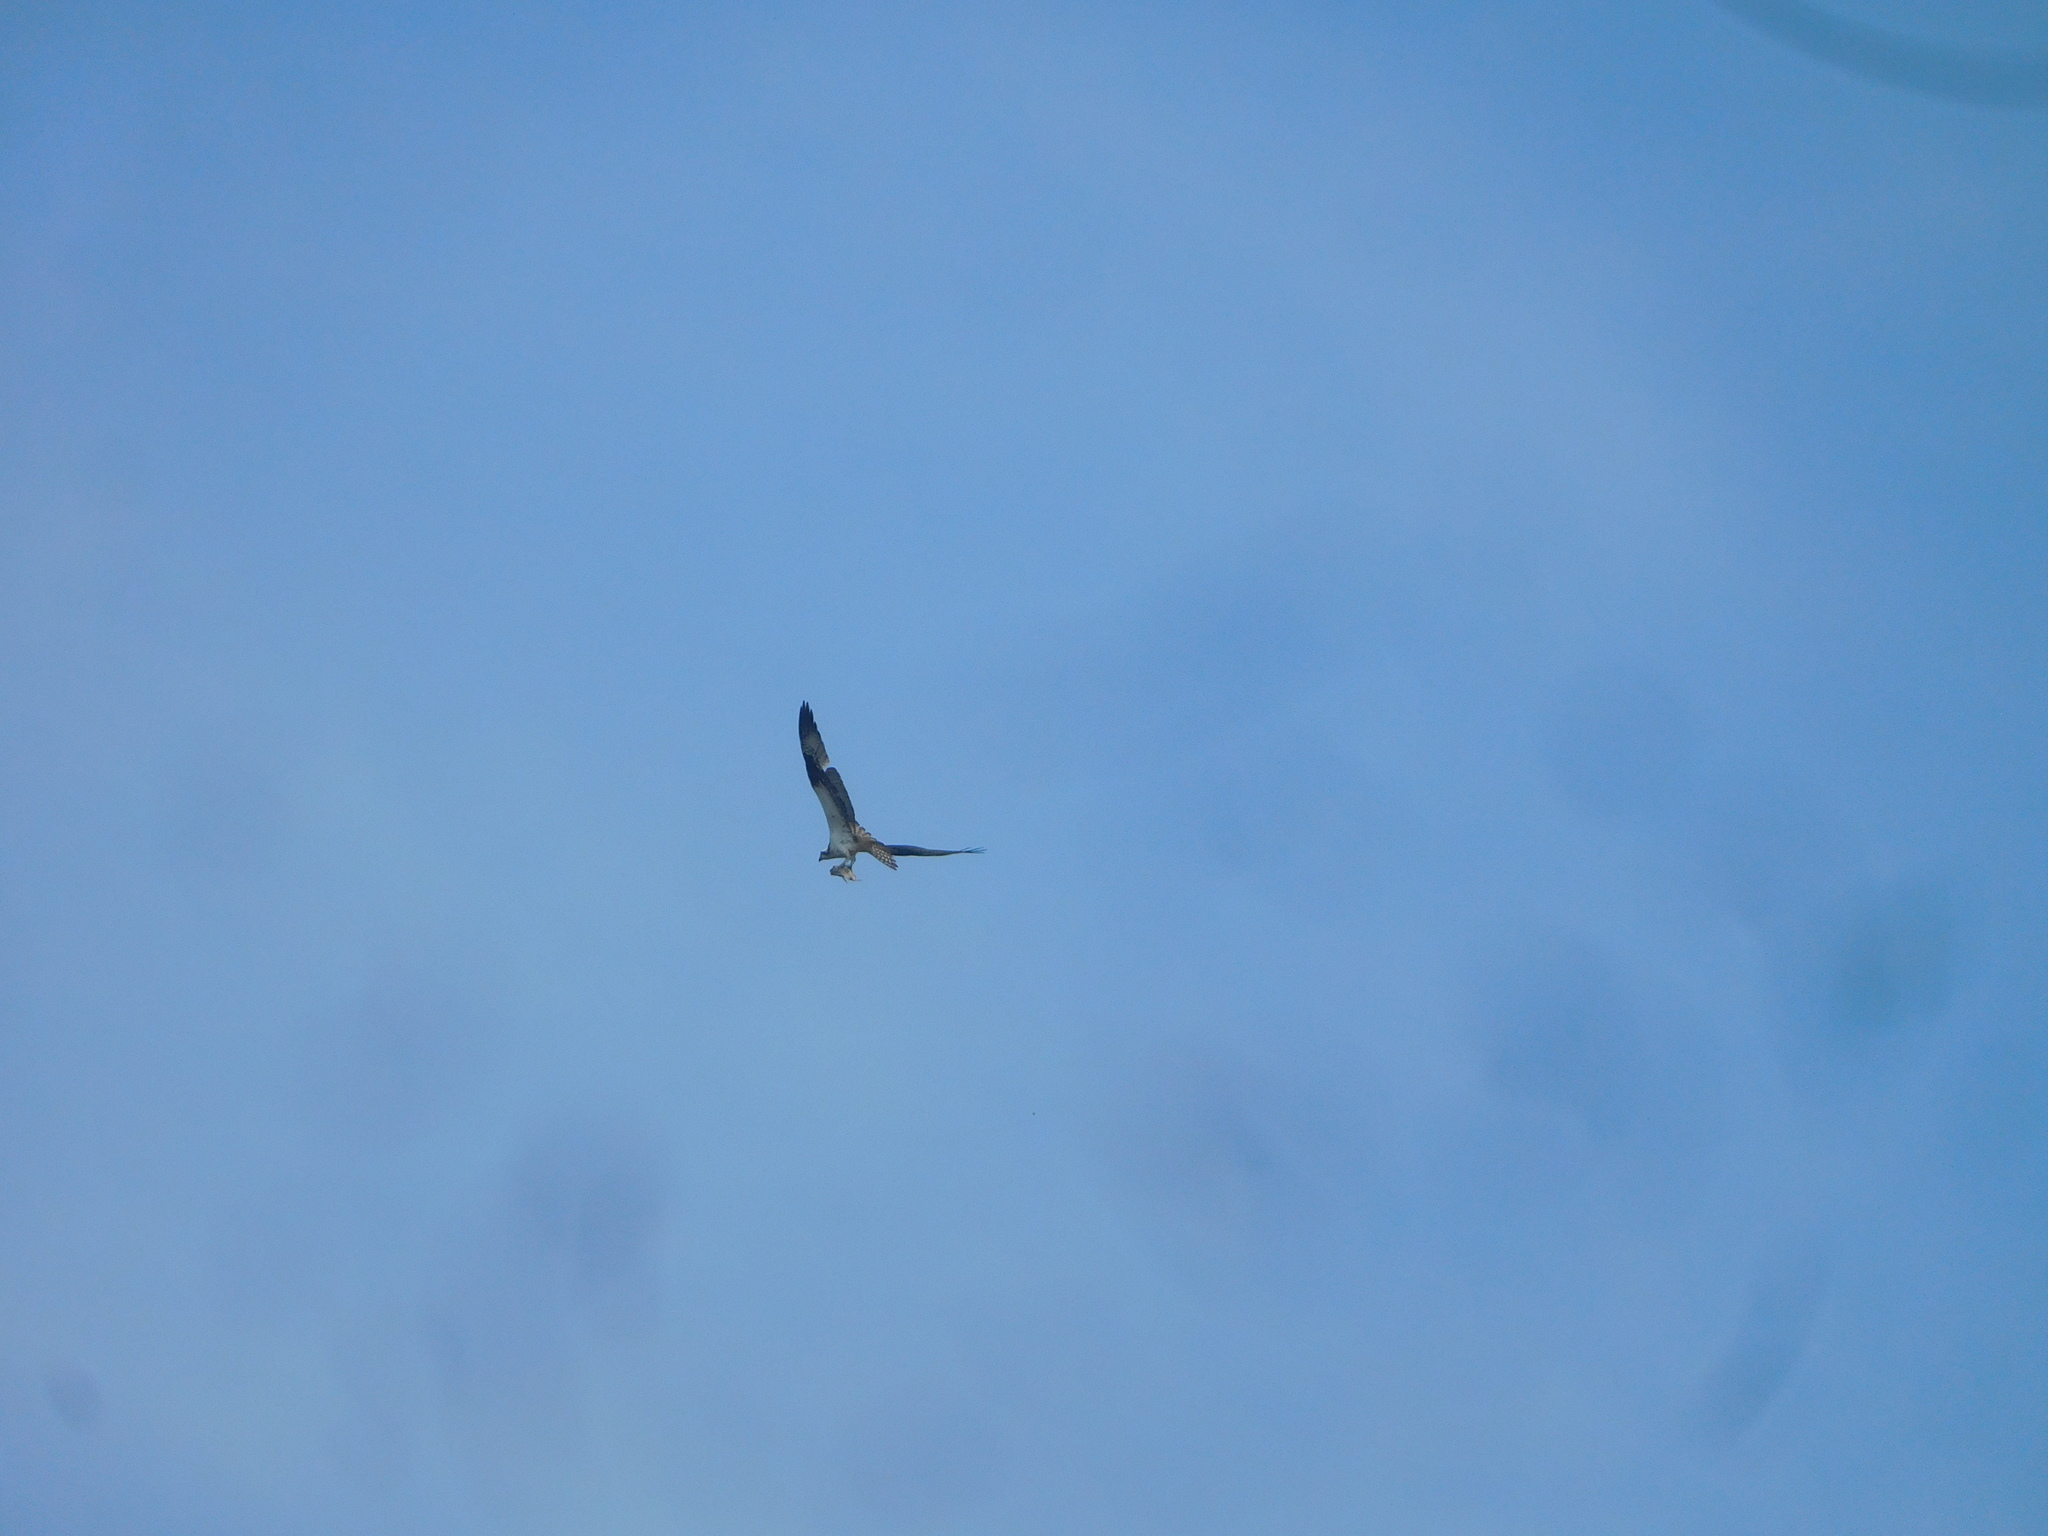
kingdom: Animalia
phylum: Chordata
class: Aves
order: Accipitriformes
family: Pandionidae
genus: Pandion
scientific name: Pandion haliaetus
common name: Osprey
